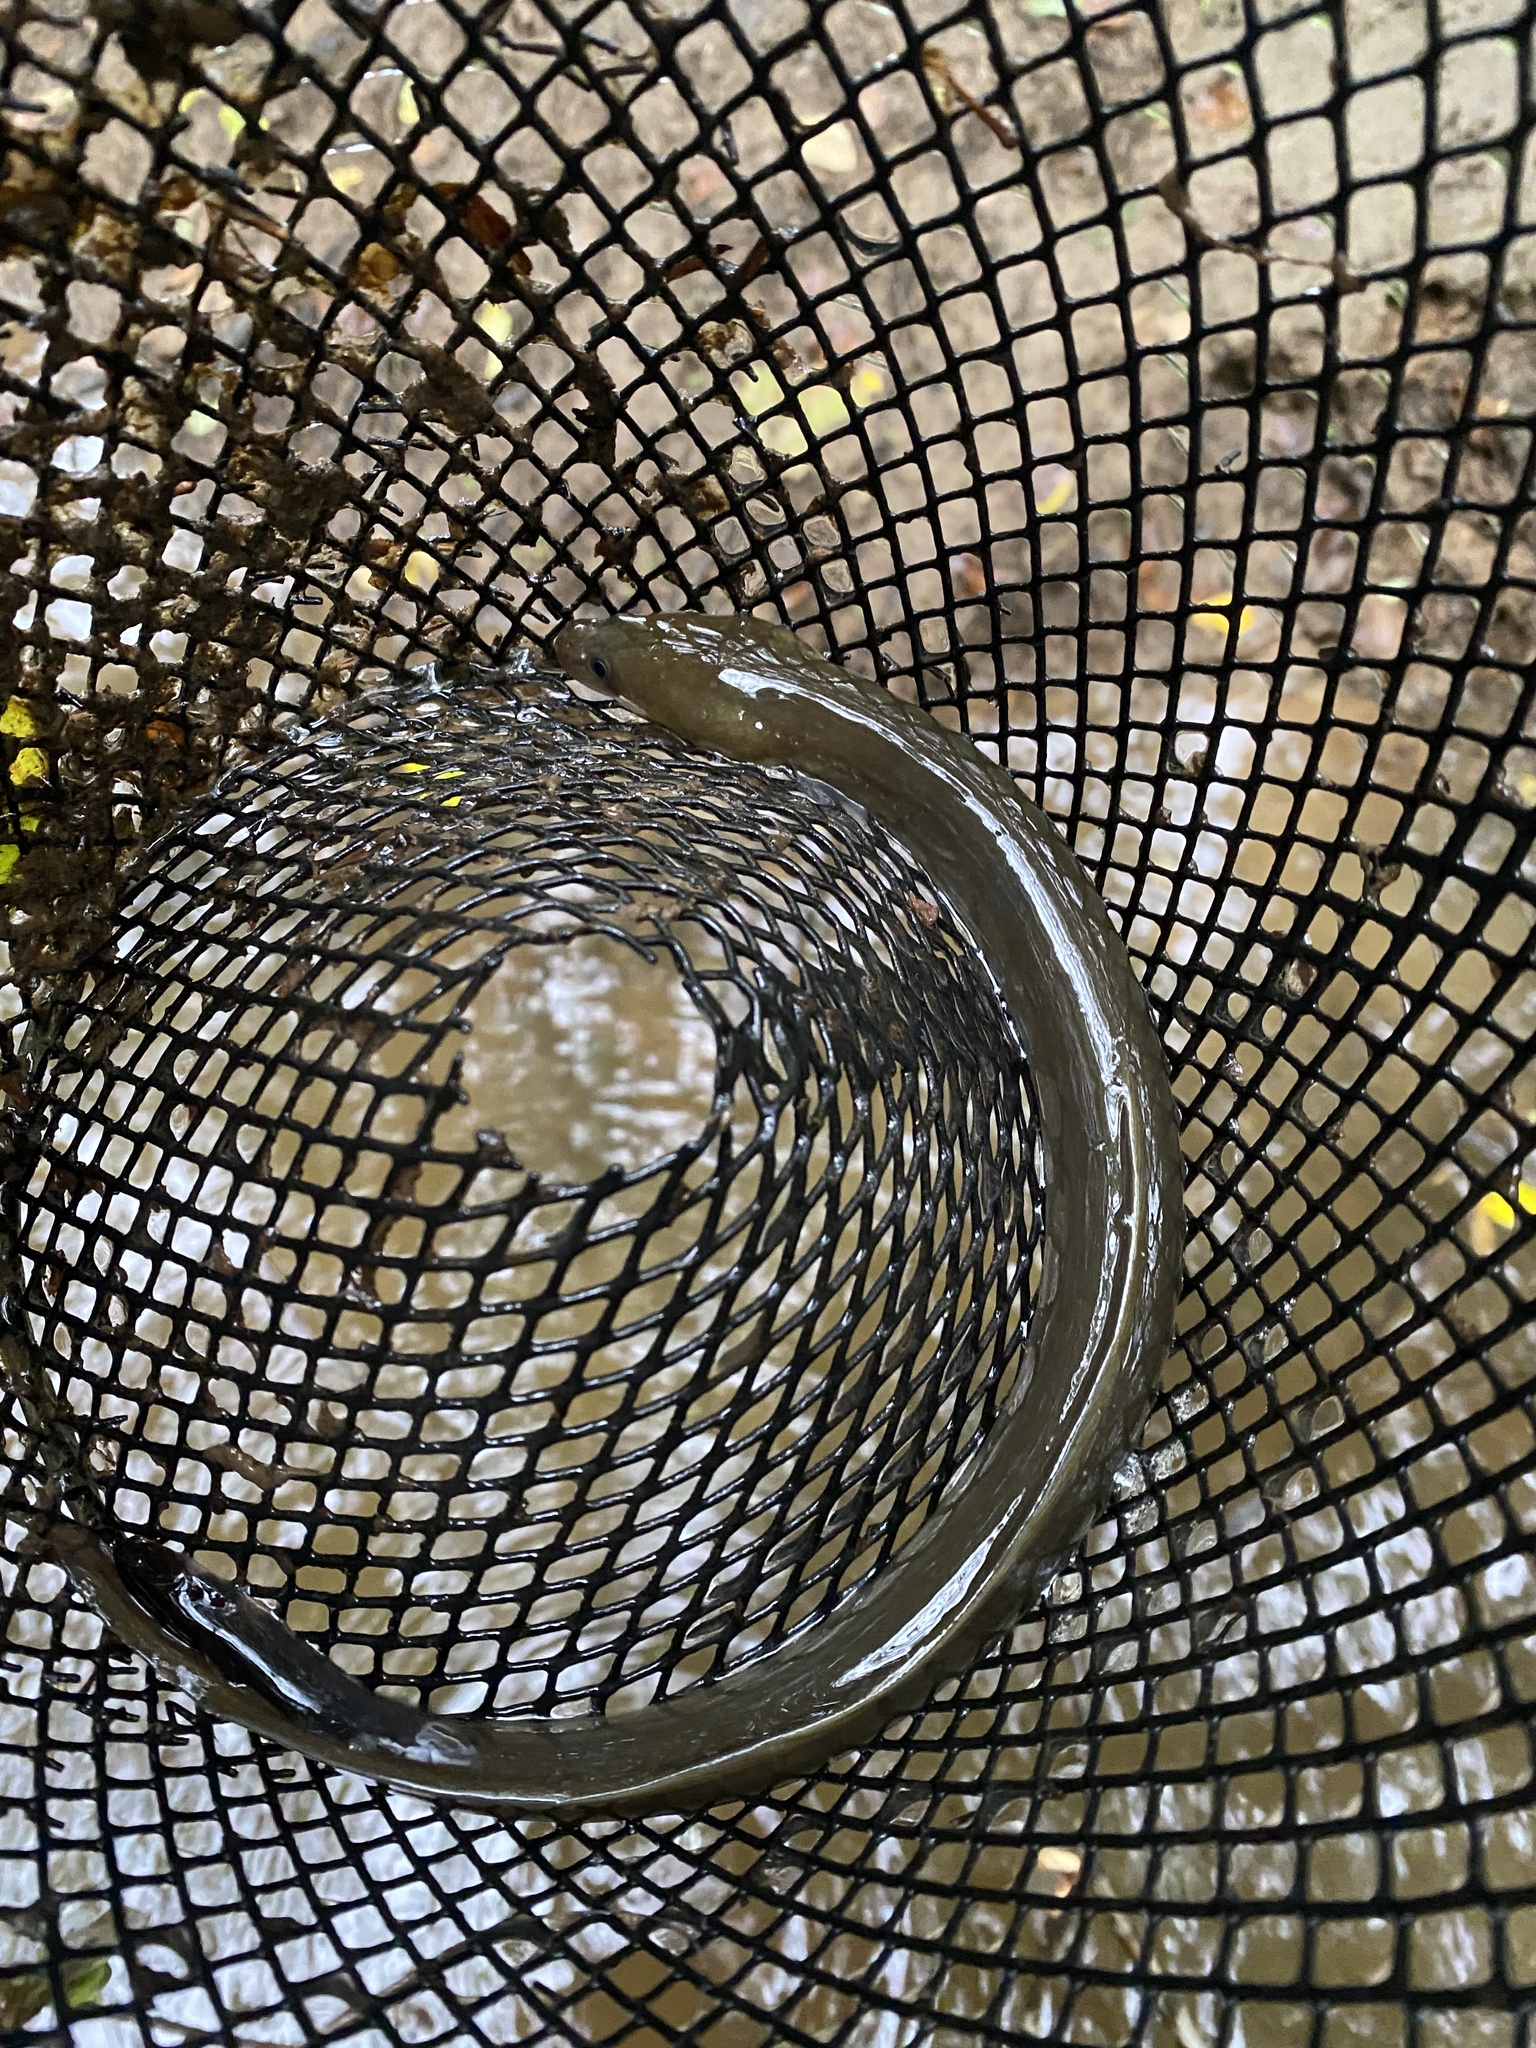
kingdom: Animalia
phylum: Chordata
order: Anguilliformes
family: Anguillidae
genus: Anguilla
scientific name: Anguilla rostrata
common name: American eel
